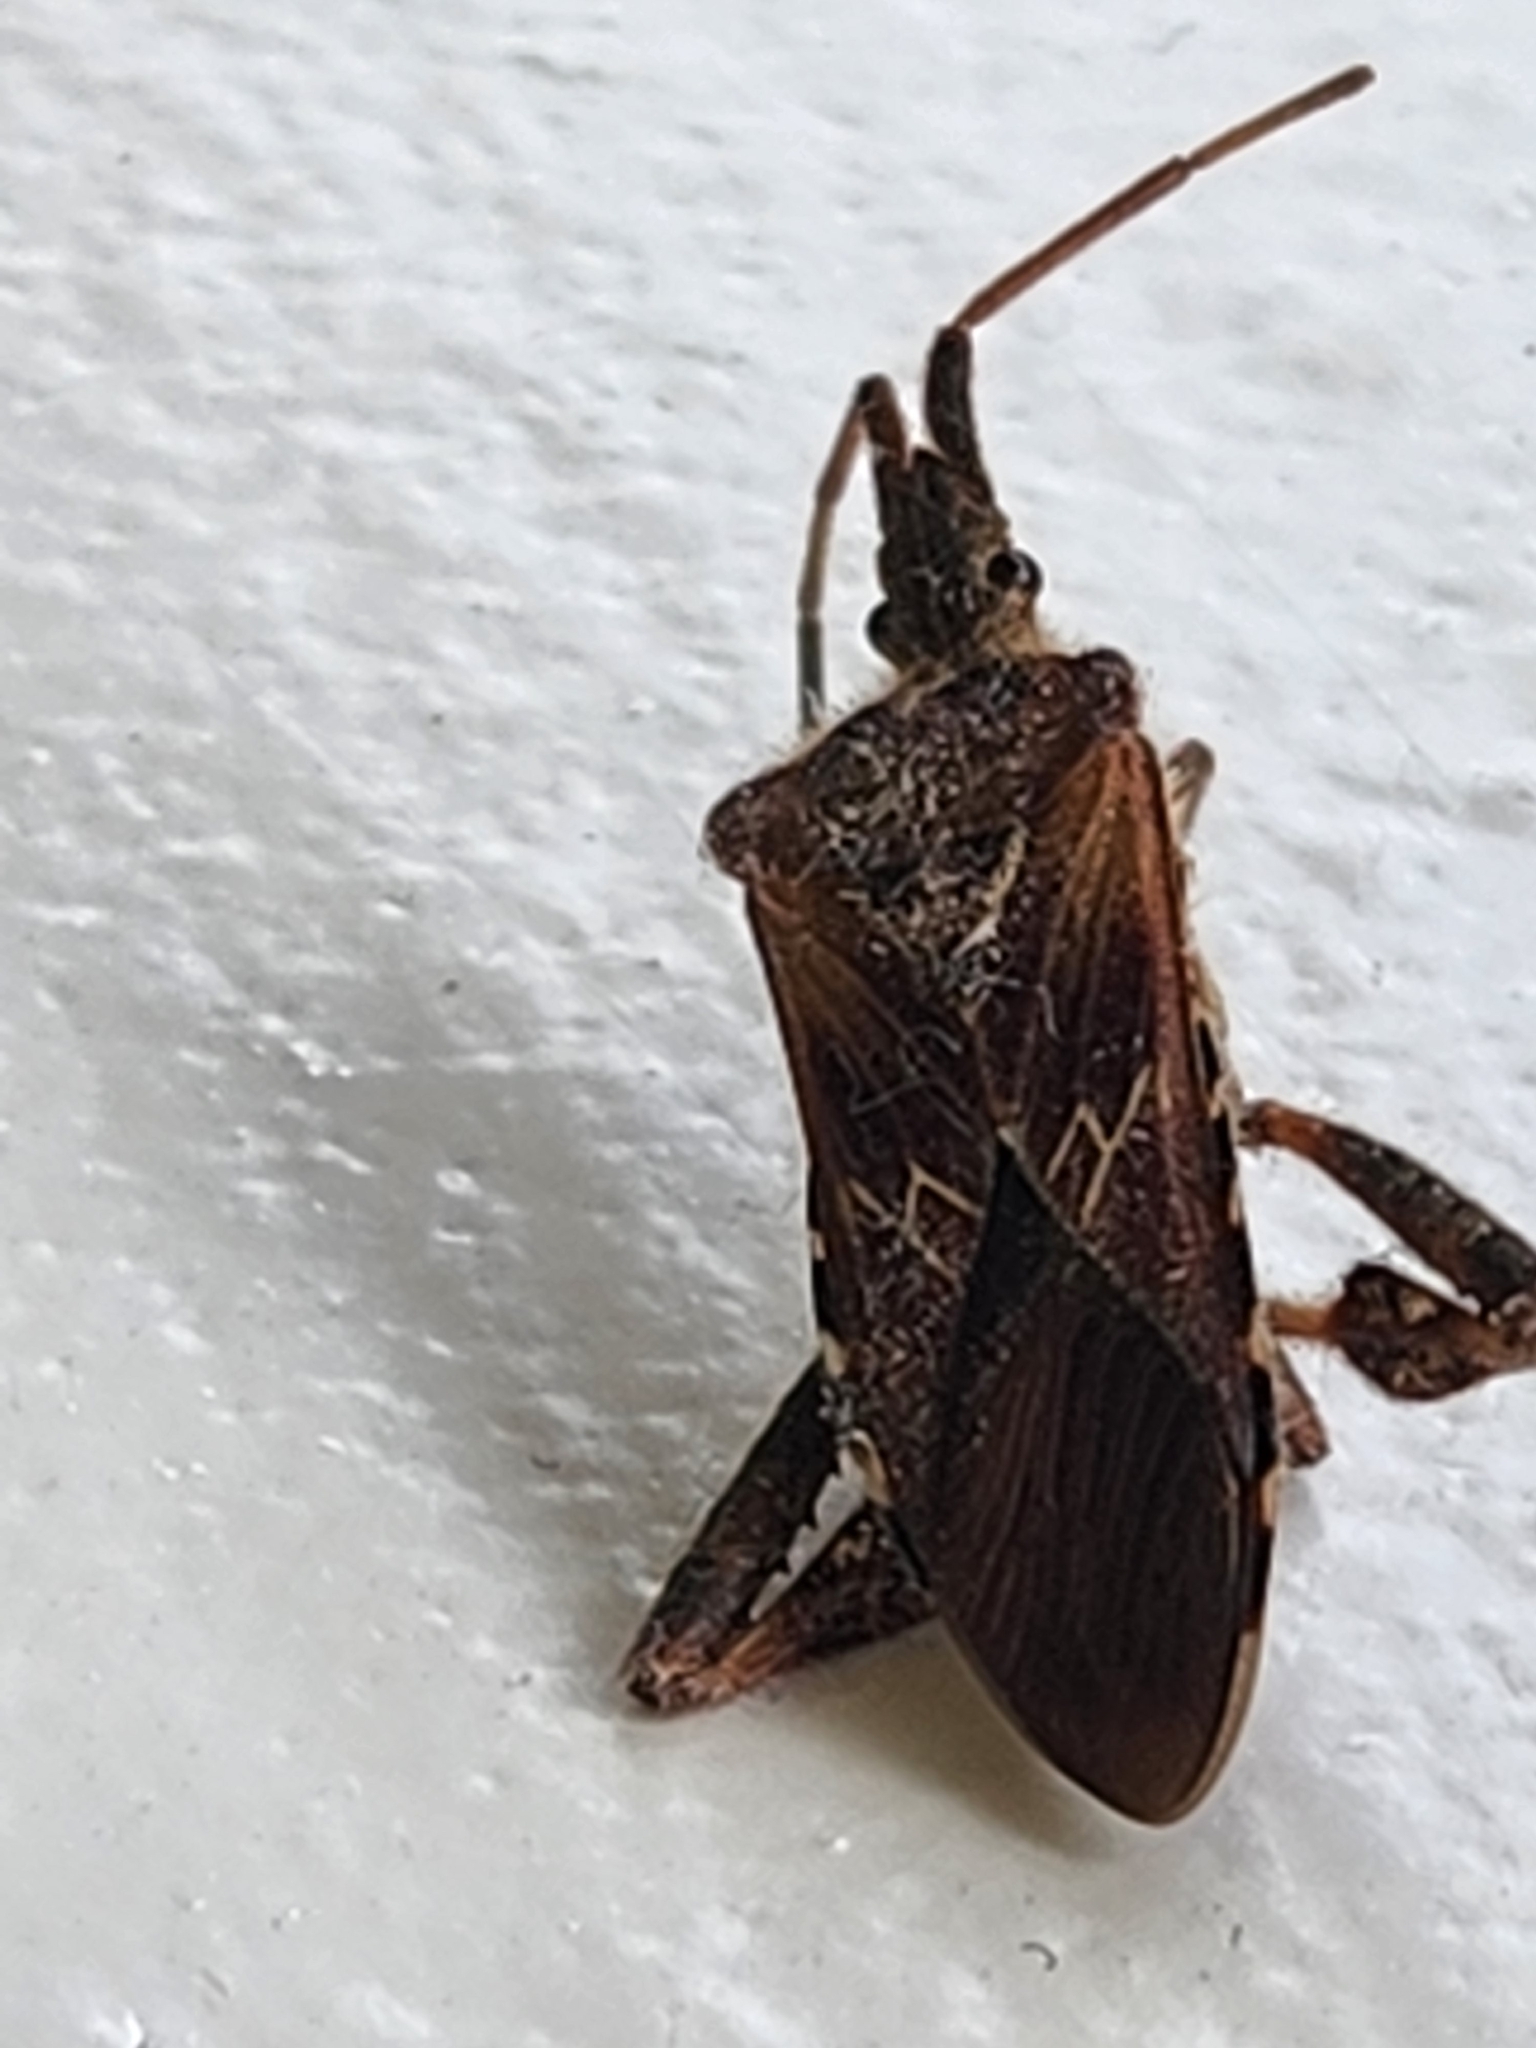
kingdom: Animalia
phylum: Arthropoda
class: Insecta
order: Hemiptera
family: Coreidae
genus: Leptoglossus
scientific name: Leptoglossus occidentalis
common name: Western conifer-seed bug
